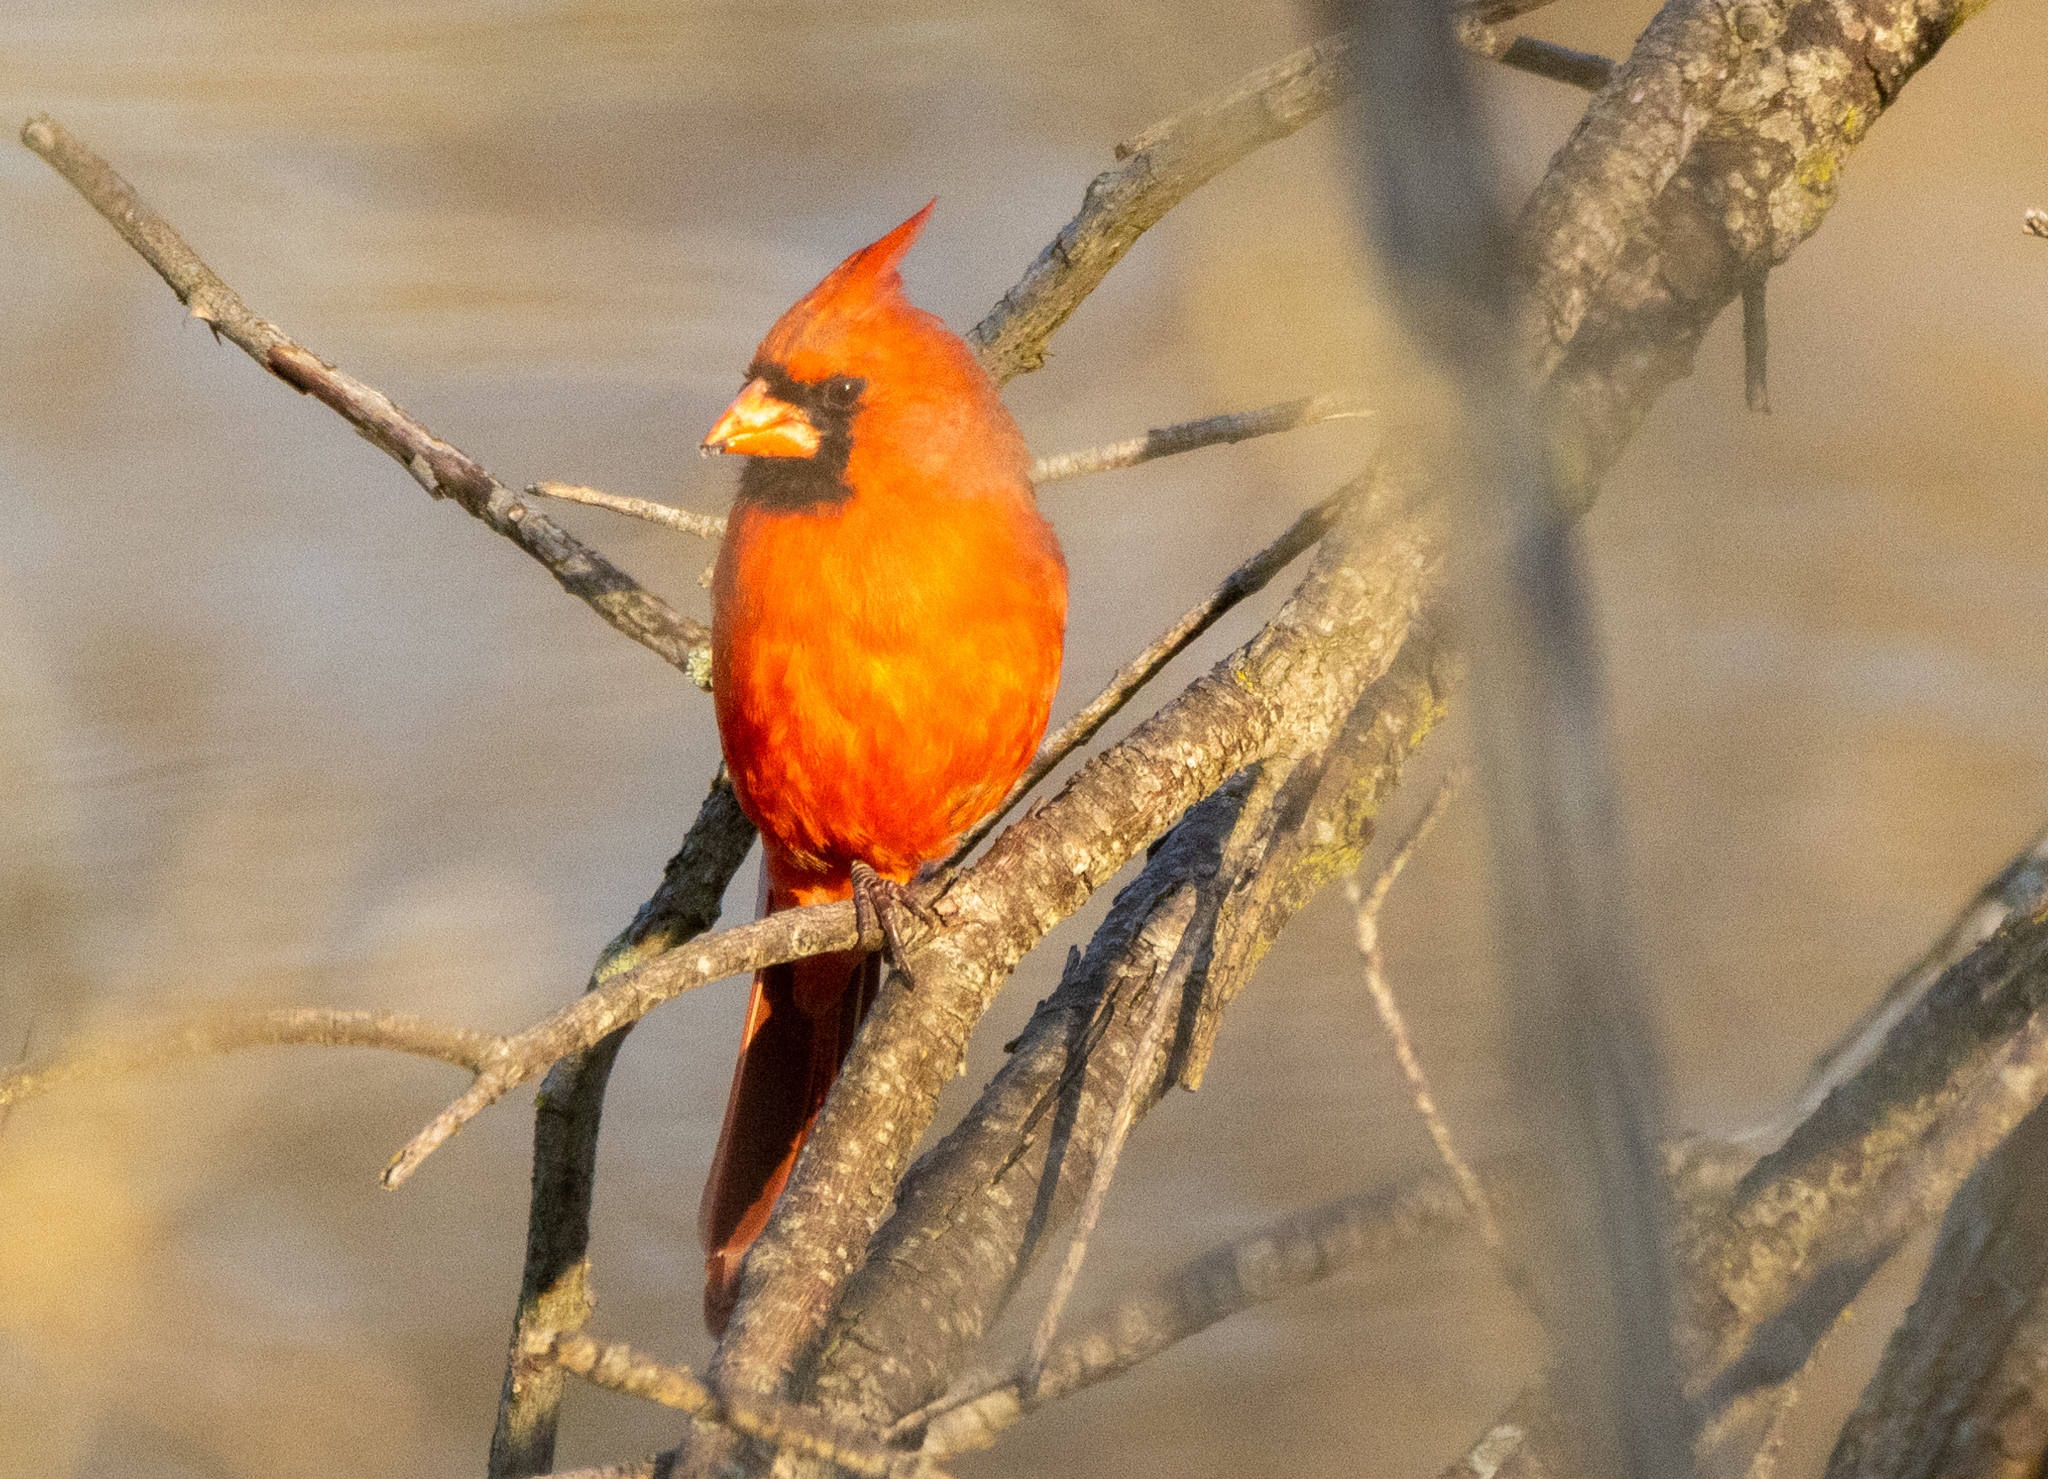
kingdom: Animalia
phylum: Chordata
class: Aves
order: Passeriformes
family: Cardinalidae
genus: Cardinalis
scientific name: Cardinalis cardinalis
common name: Northern cardinal
